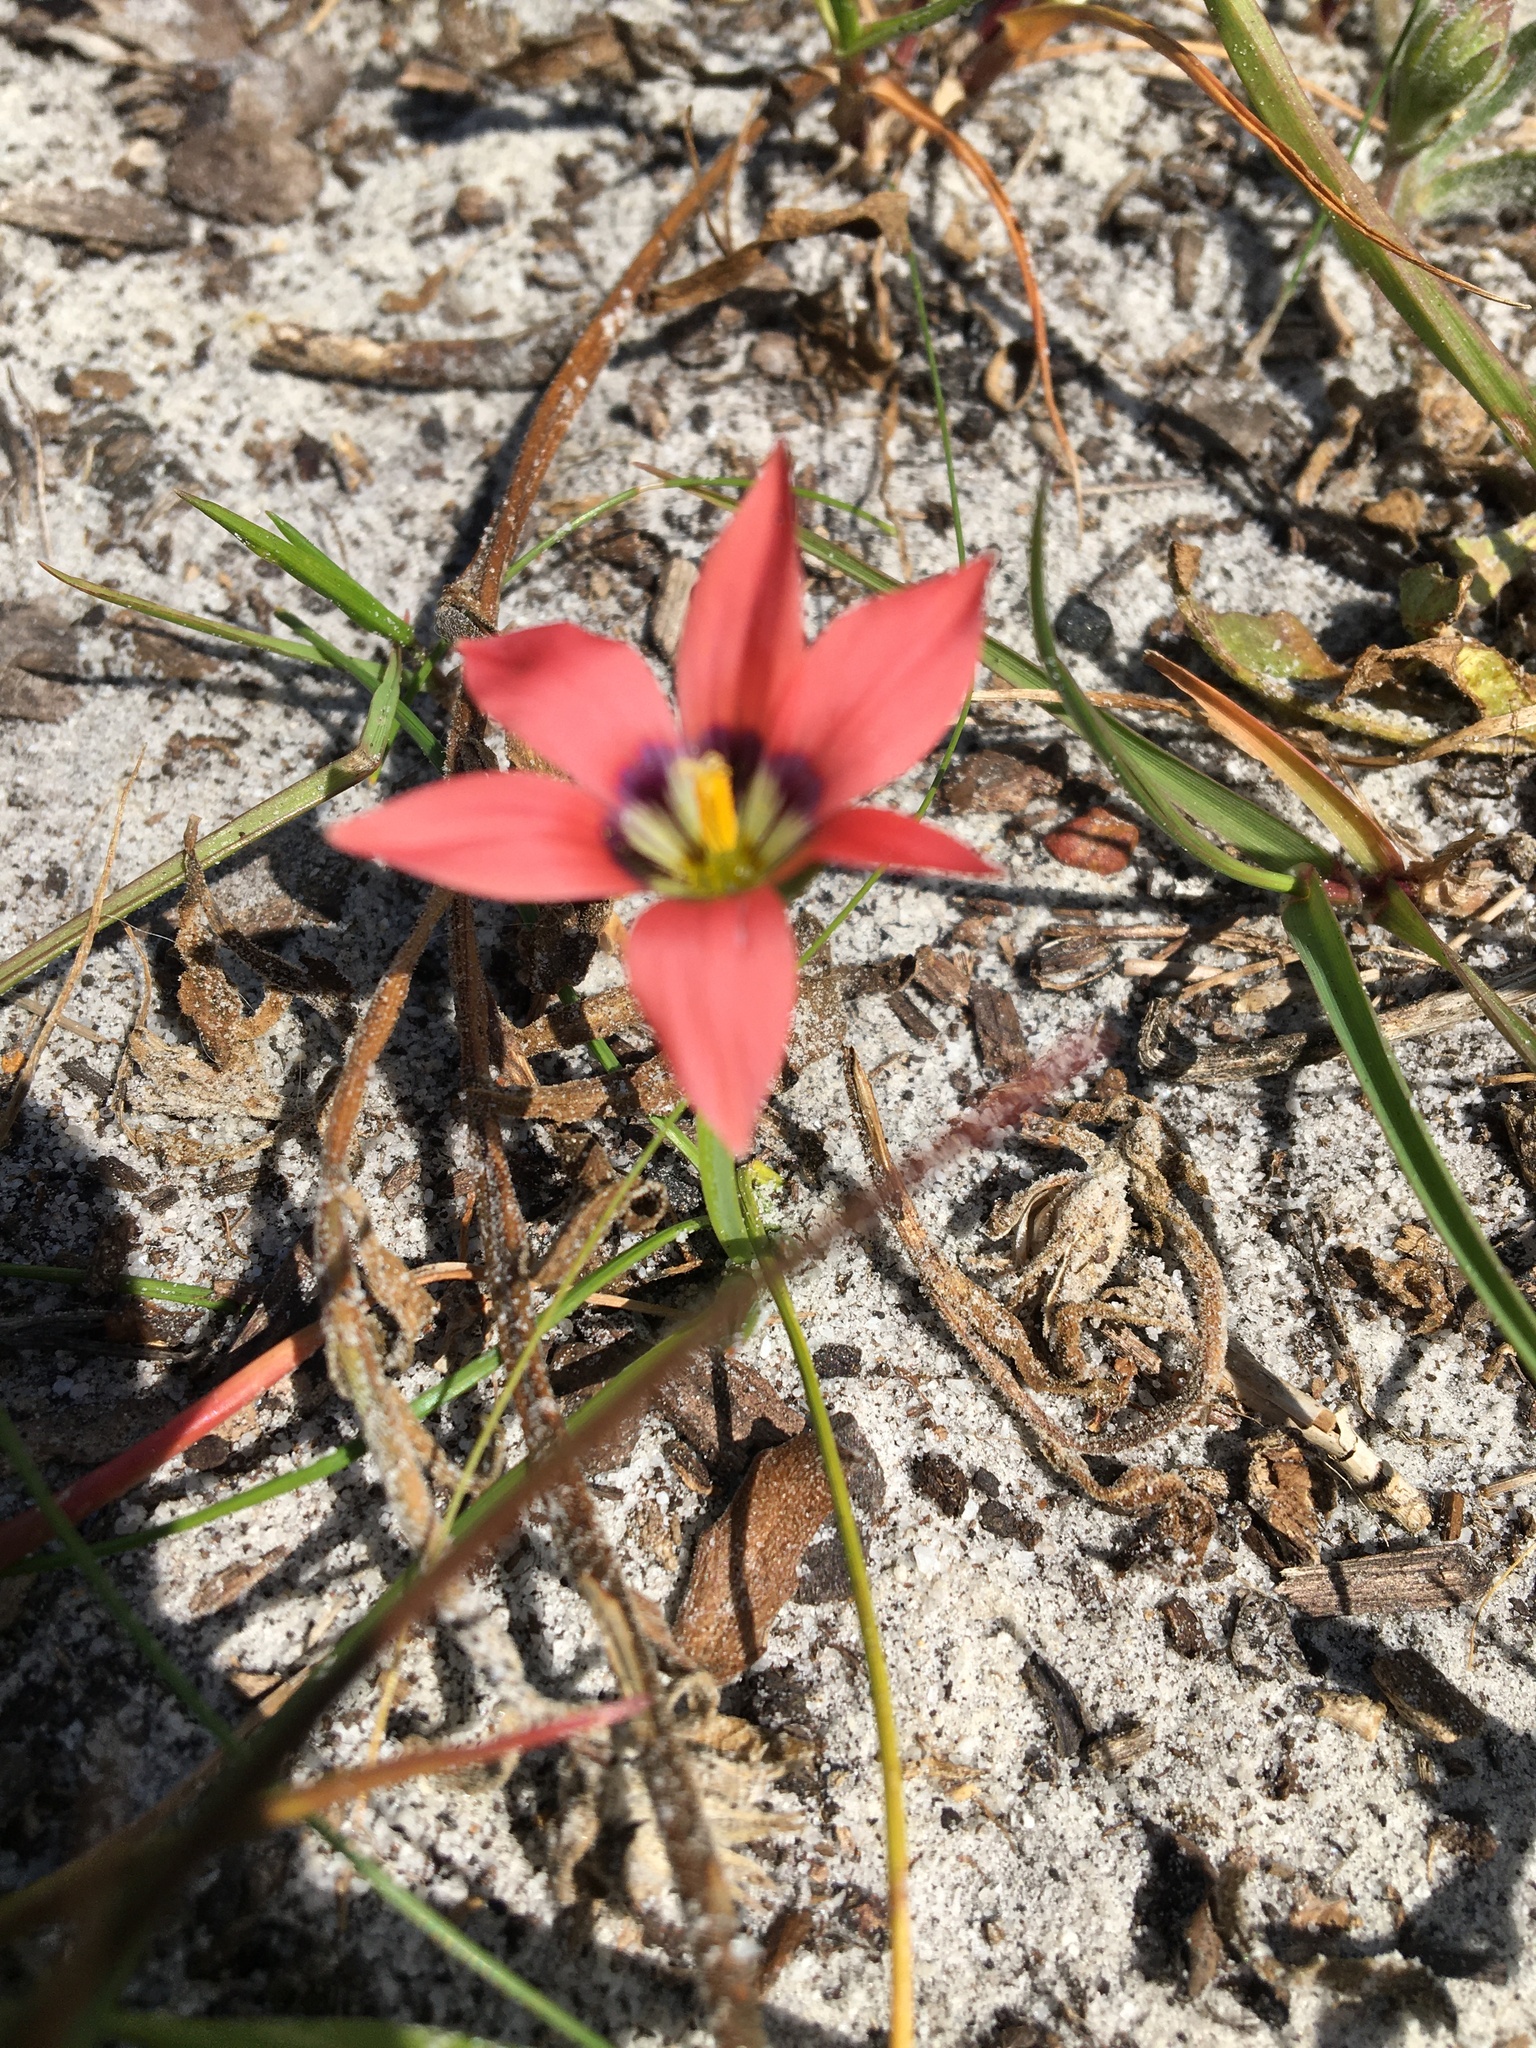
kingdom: Plantae
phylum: Tracheophyta
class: Liliopsida
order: Asparagales
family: Iridaceae
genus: Romulea
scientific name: Romulea hirsuta
